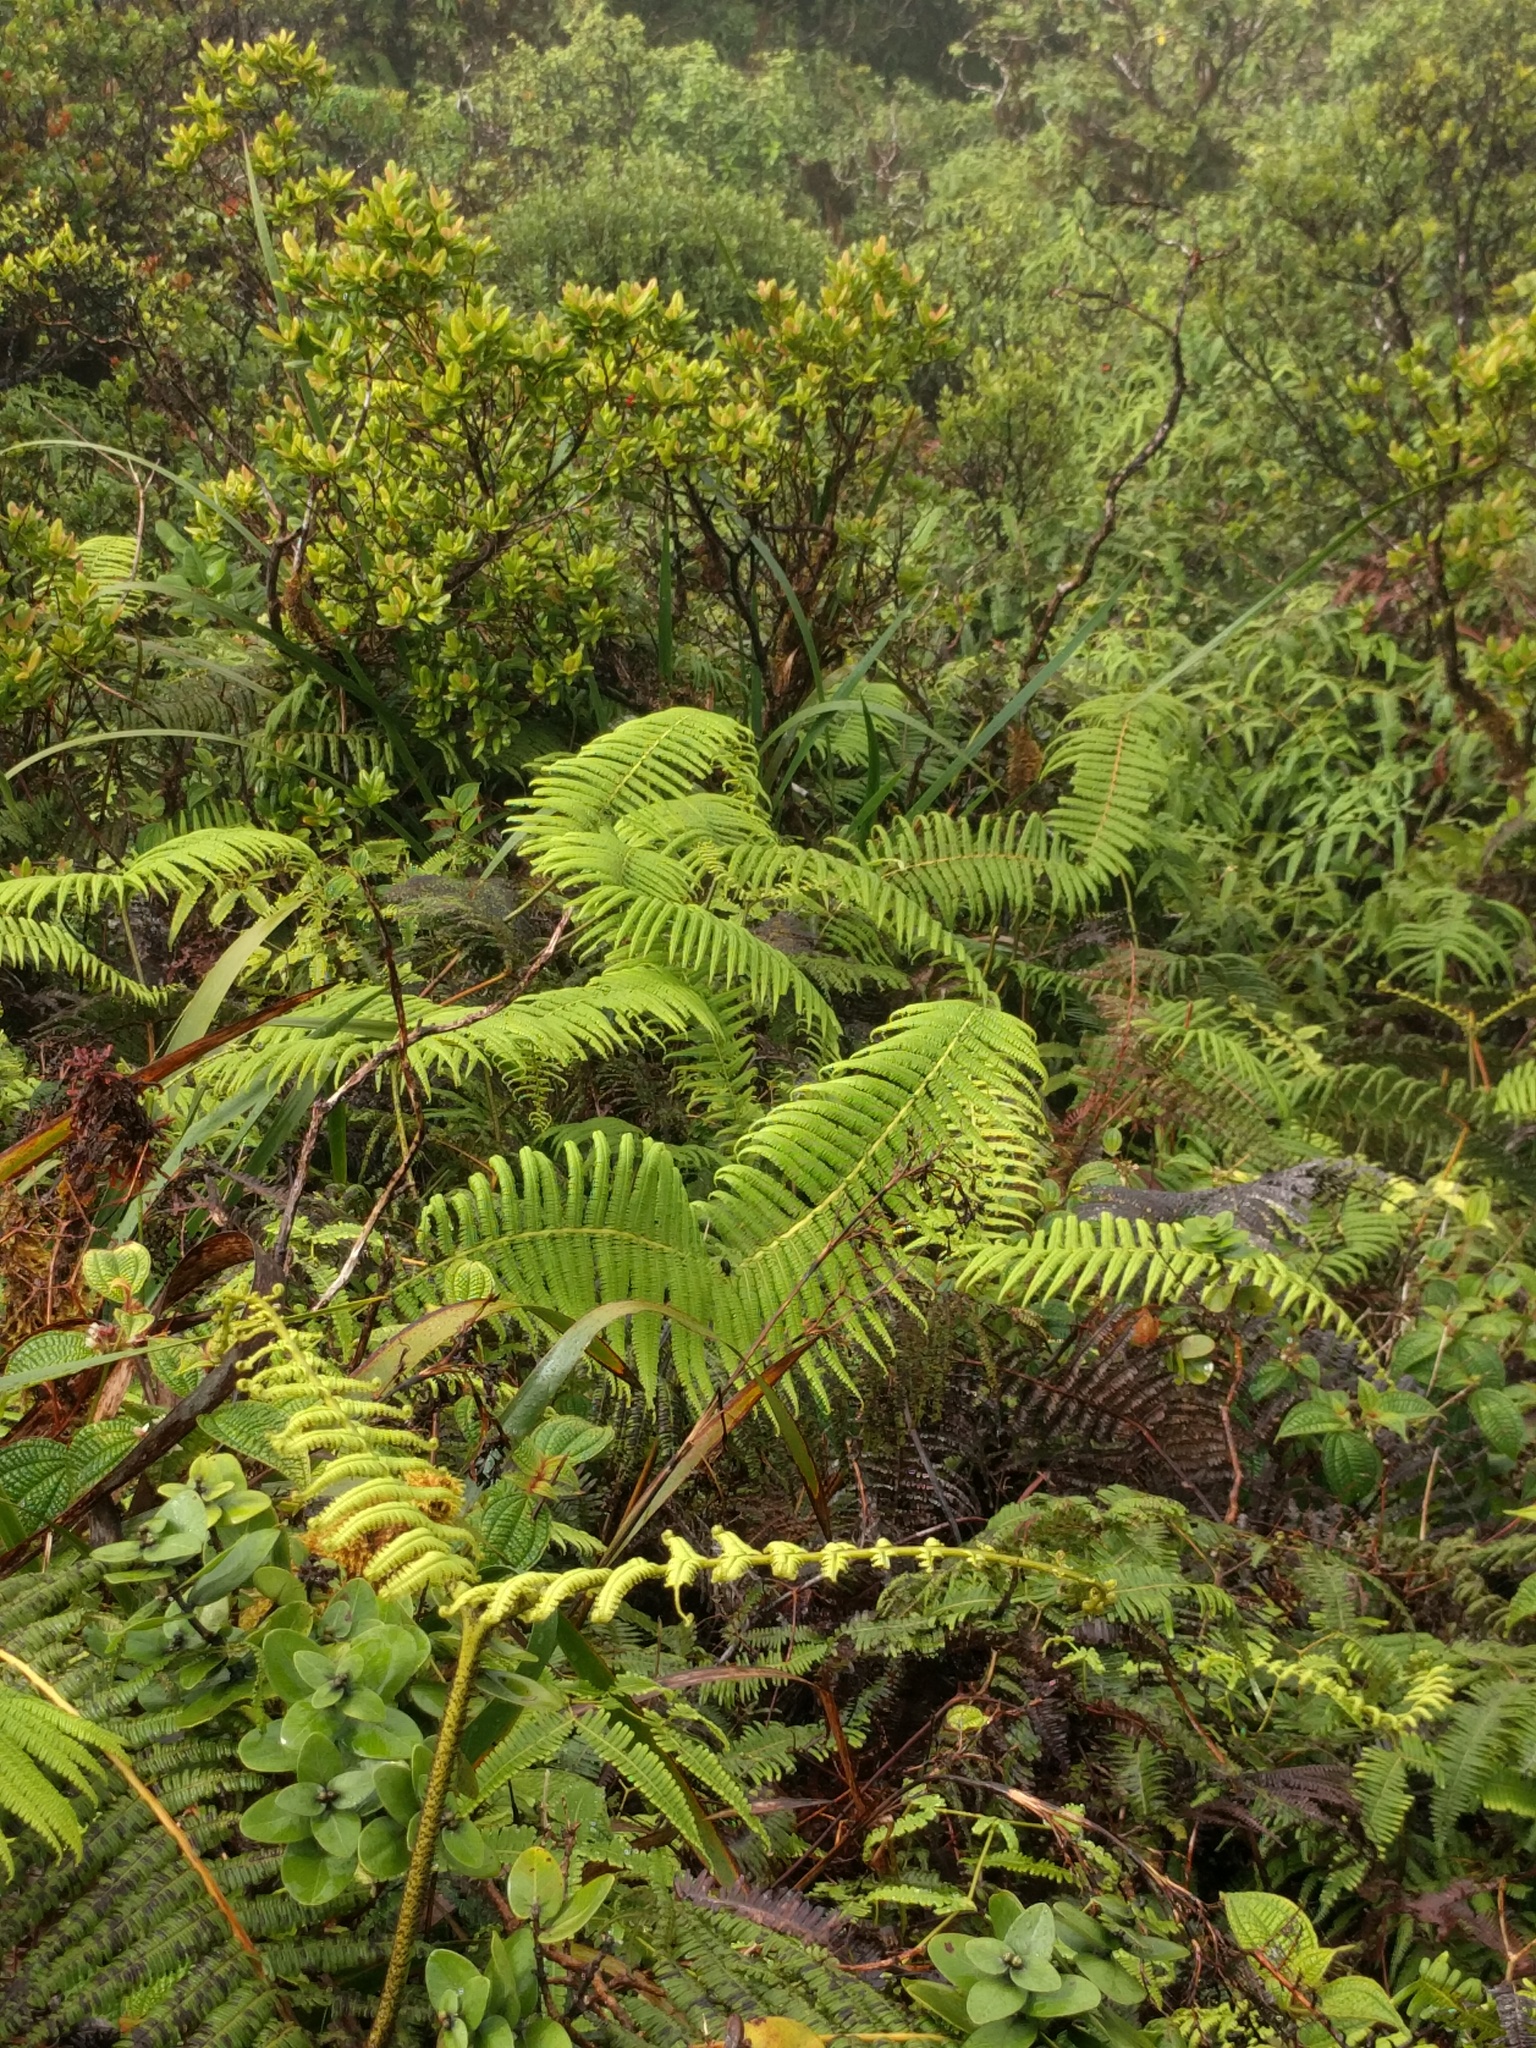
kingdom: Plantae
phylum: Tracheophyta
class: Polypodiopsida
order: Gleicheniales
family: Gleicheniaceae
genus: Diplopterygium
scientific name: Diplopterygium pinnatum
